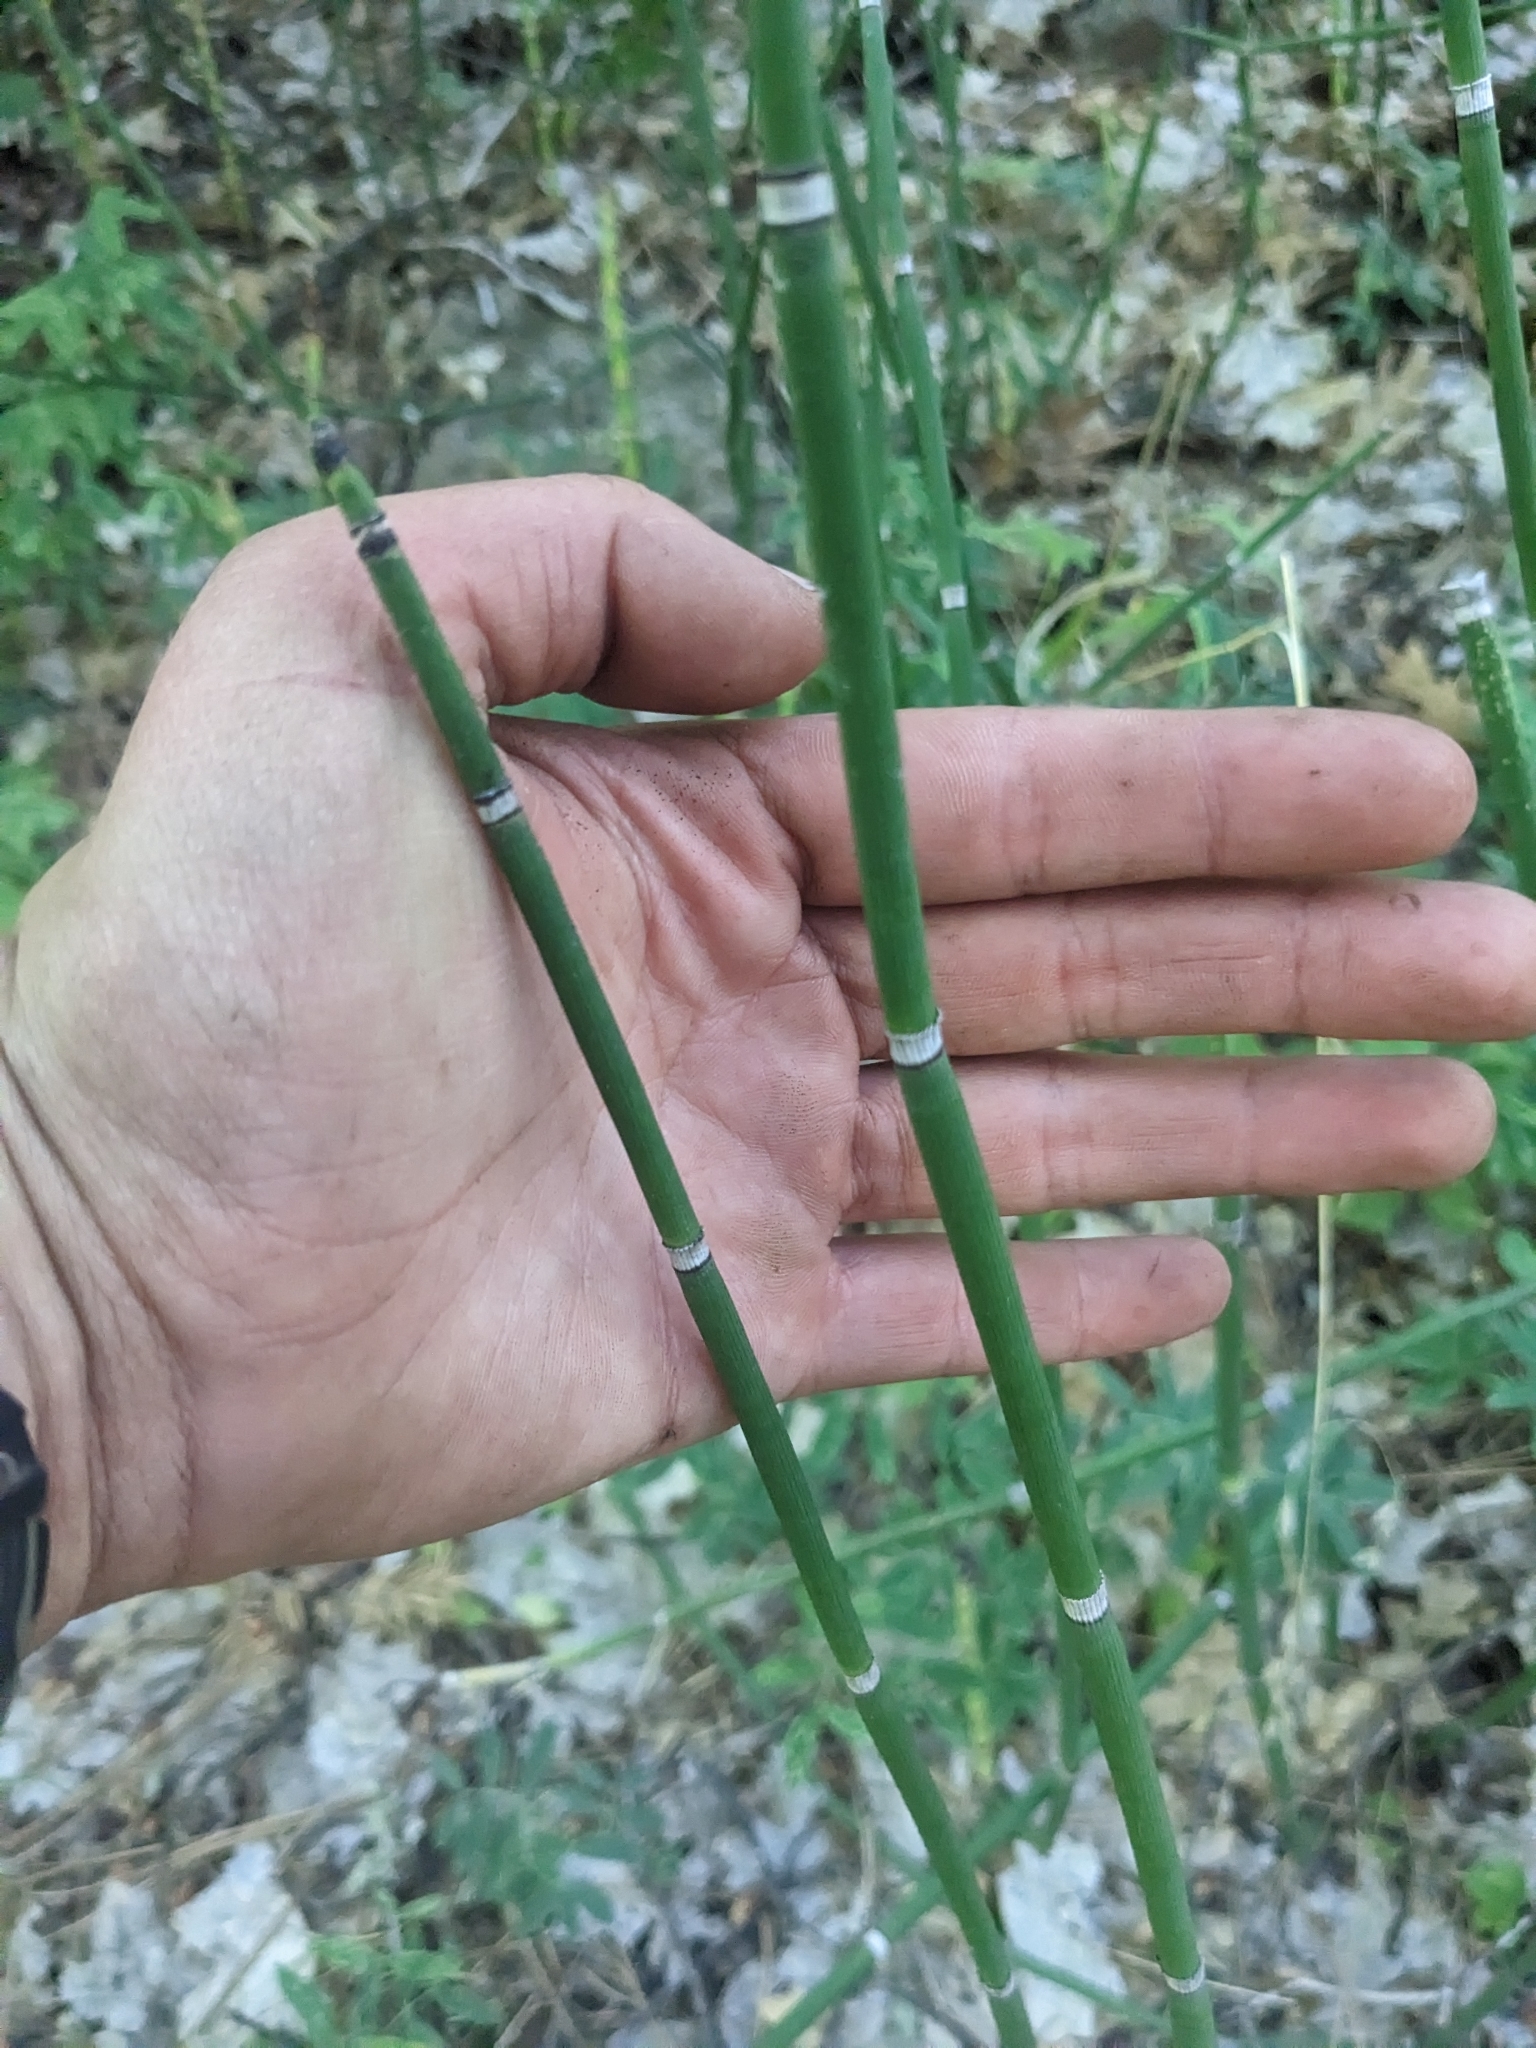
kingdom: Plantae
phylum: Tracheophyta
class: Polypodiopsida
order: Equisetales
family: Equisetaceae
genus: Equisetum
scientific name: Equisetum hyemale
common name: Rough horsetail
